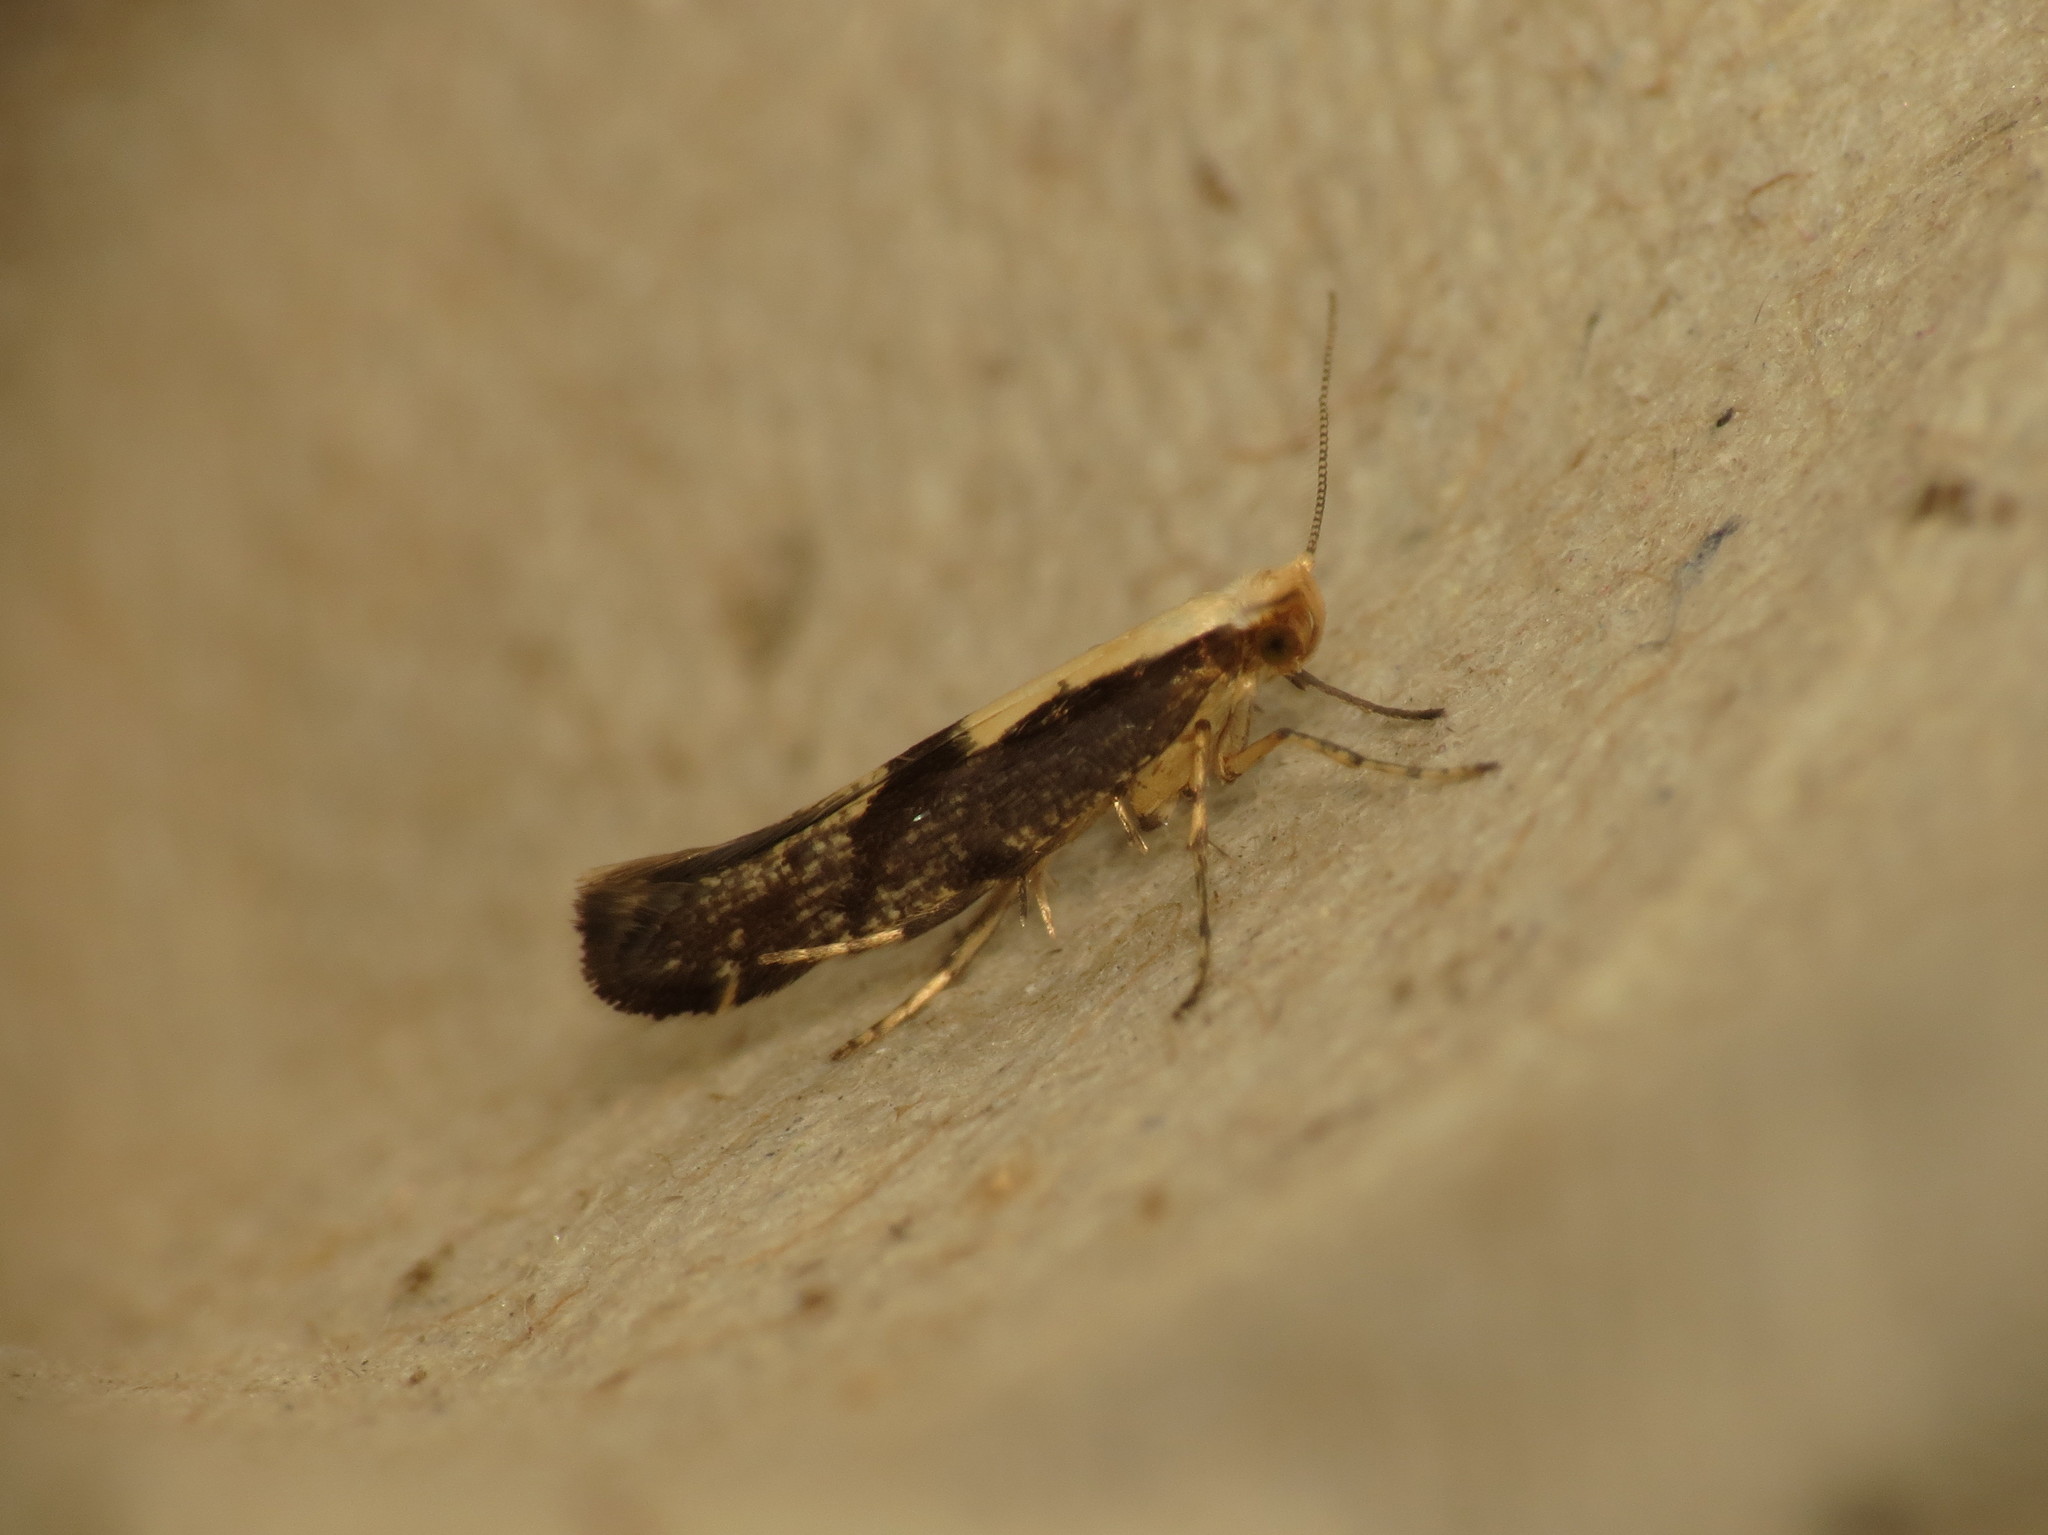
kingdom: Animalia
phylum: Arthropoda
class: Insecta
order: Lepidoptera
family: Argyresthiidae
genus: Argyresthia
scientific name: Argyresthia conjugella
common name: Apple fruit moth
